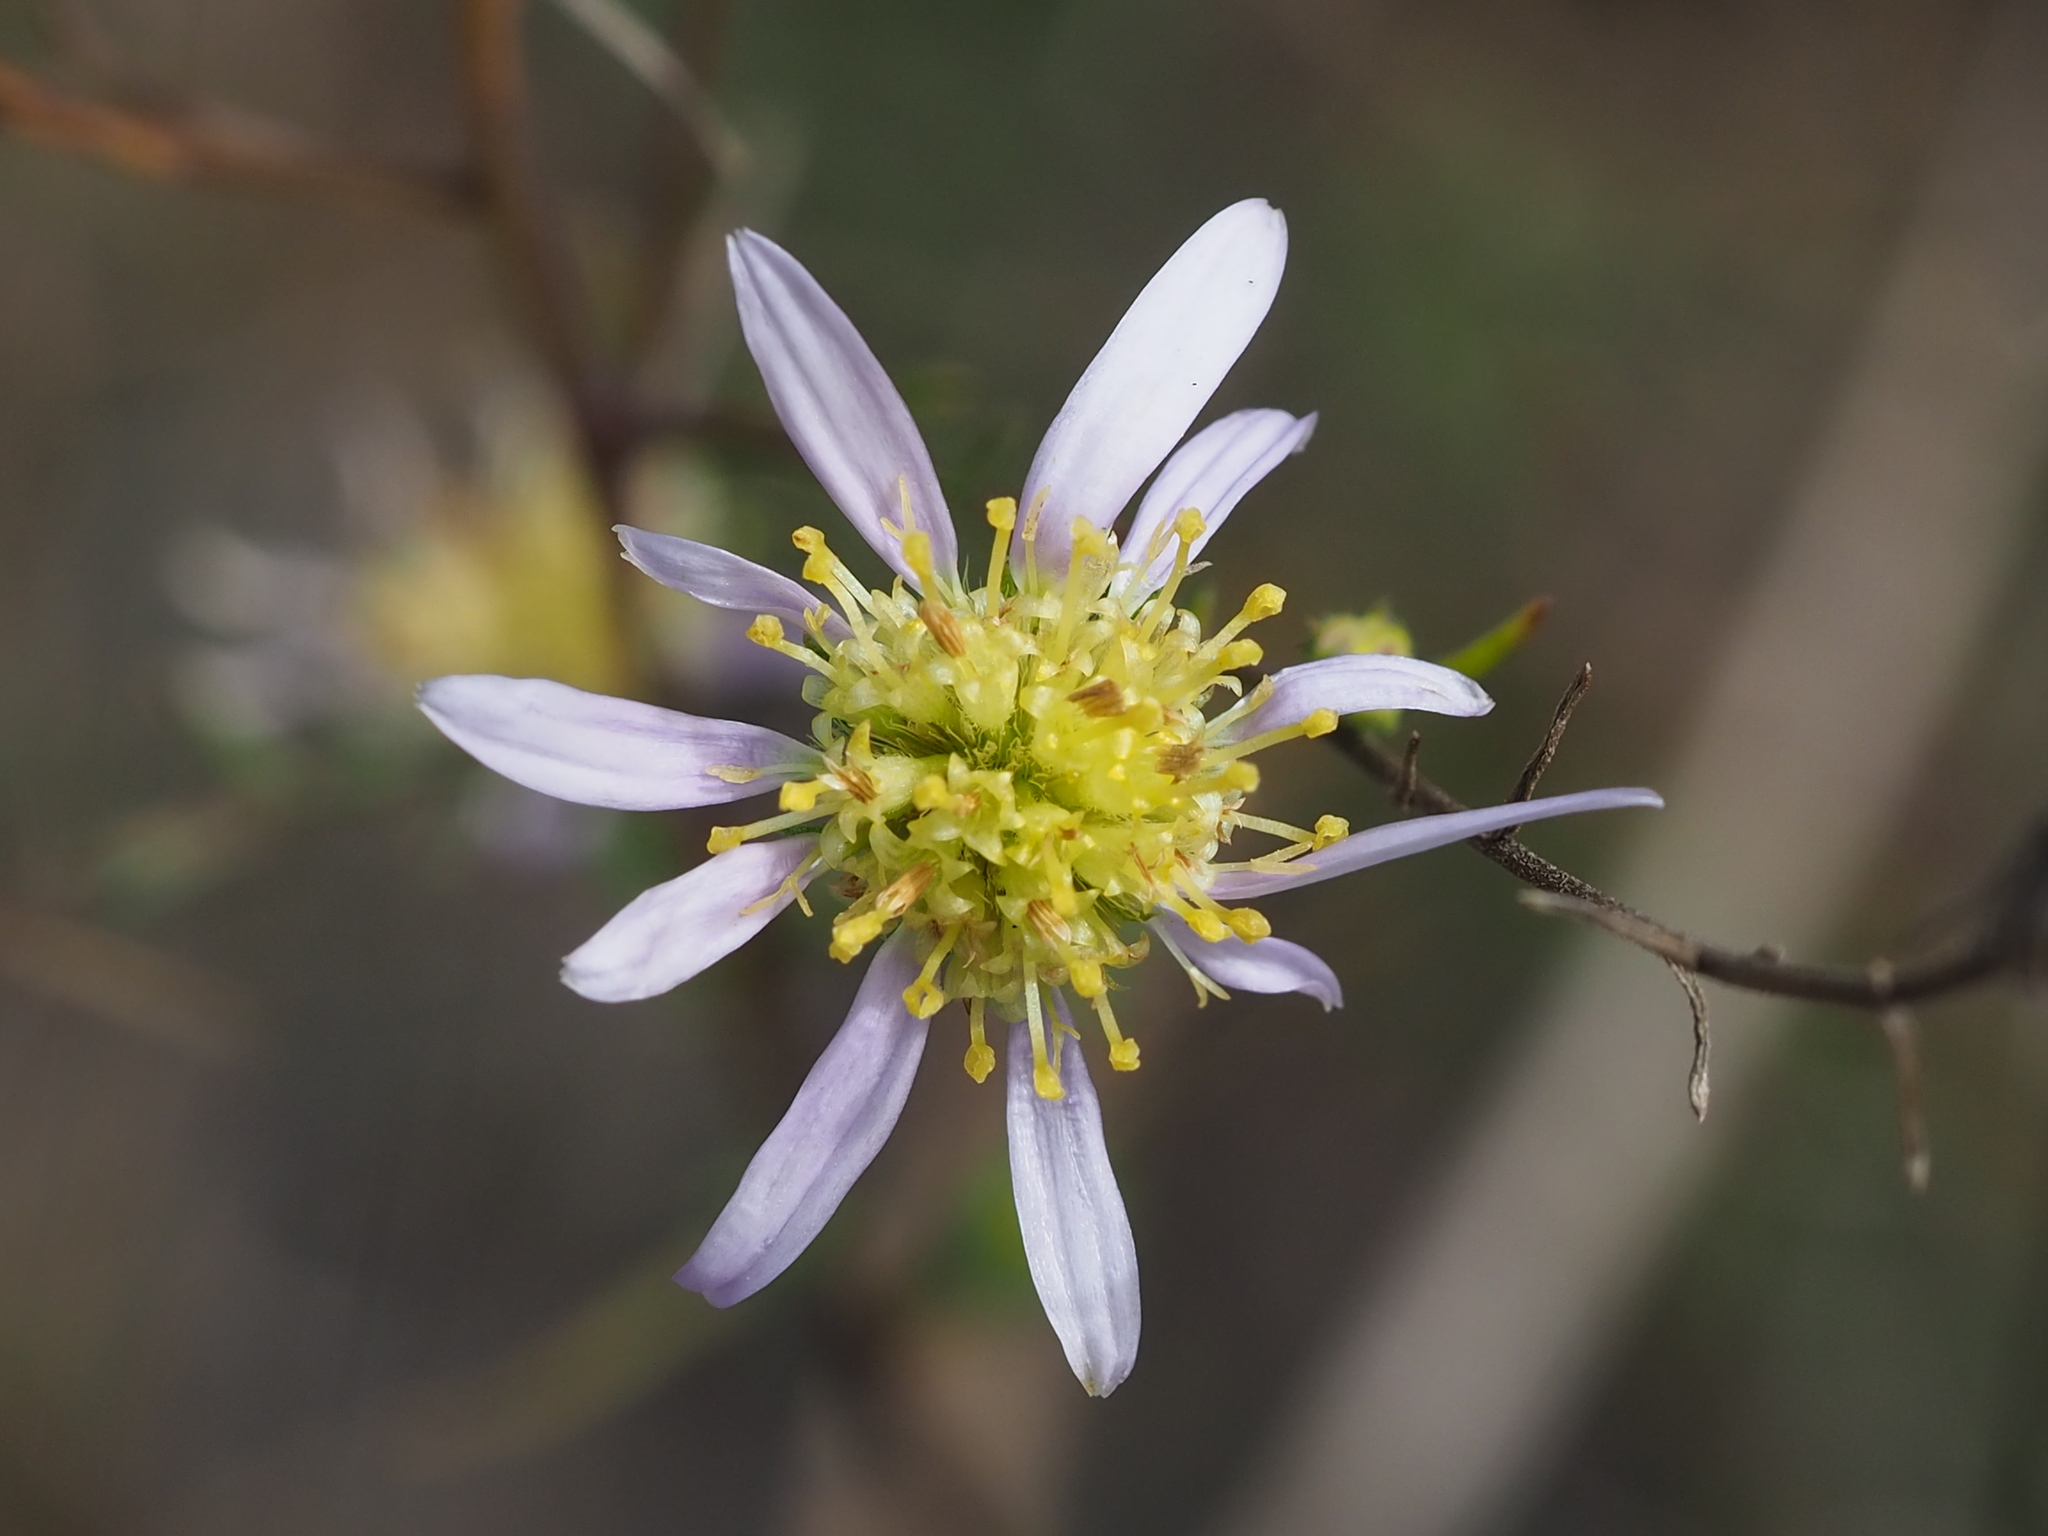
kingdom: Plantae
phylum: Tracheophyta
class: Magnoliopsida
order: Asterales
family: Asteraceae
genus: Heteropappus
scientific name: Heteropappus altaicus
